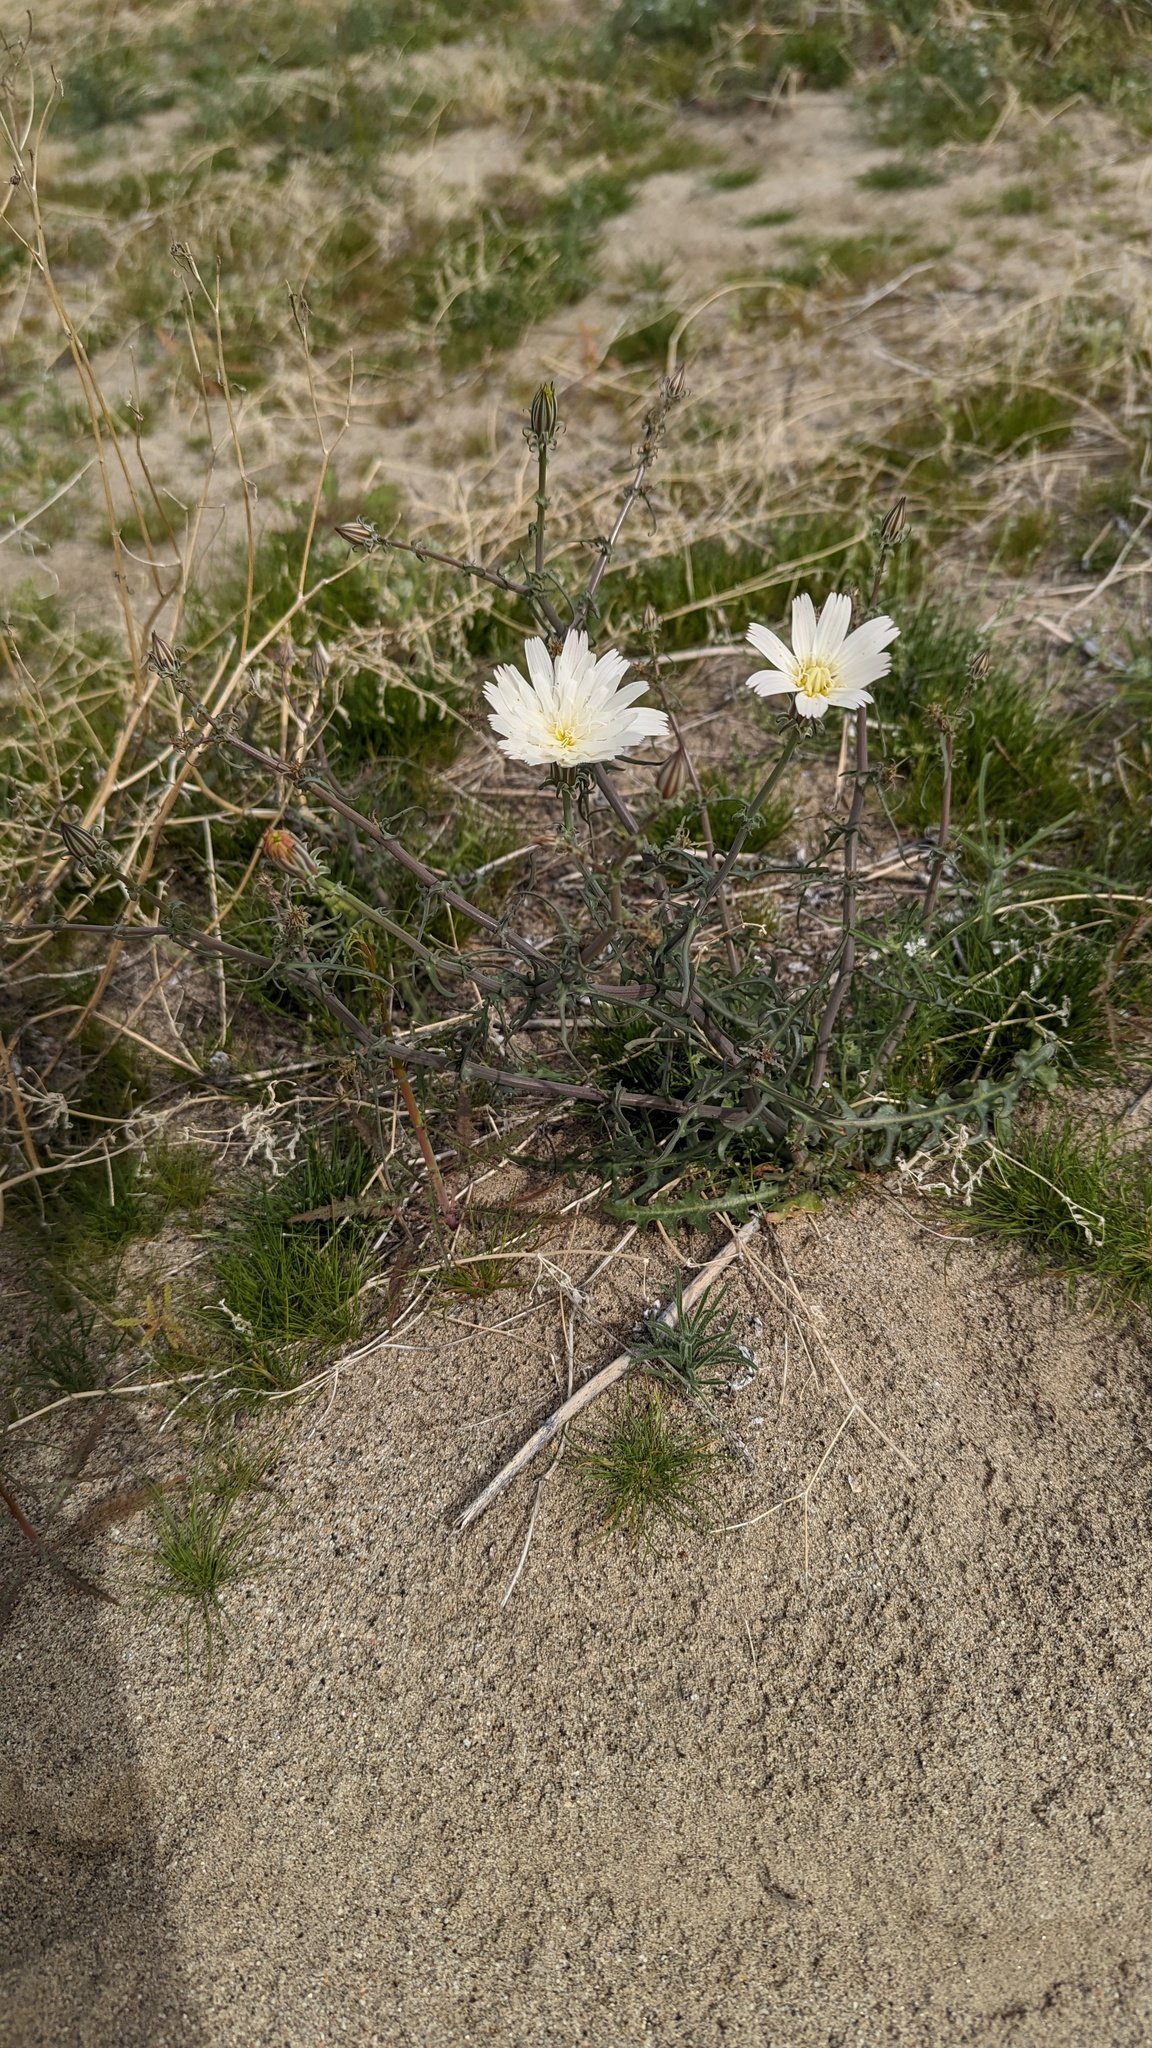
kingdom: Plantae
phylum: Tracheophyta
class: Magnoliopsida
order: Asterales
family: Asteraceae
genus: Rafinesquia
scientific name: Rafinesquia neomexicana
